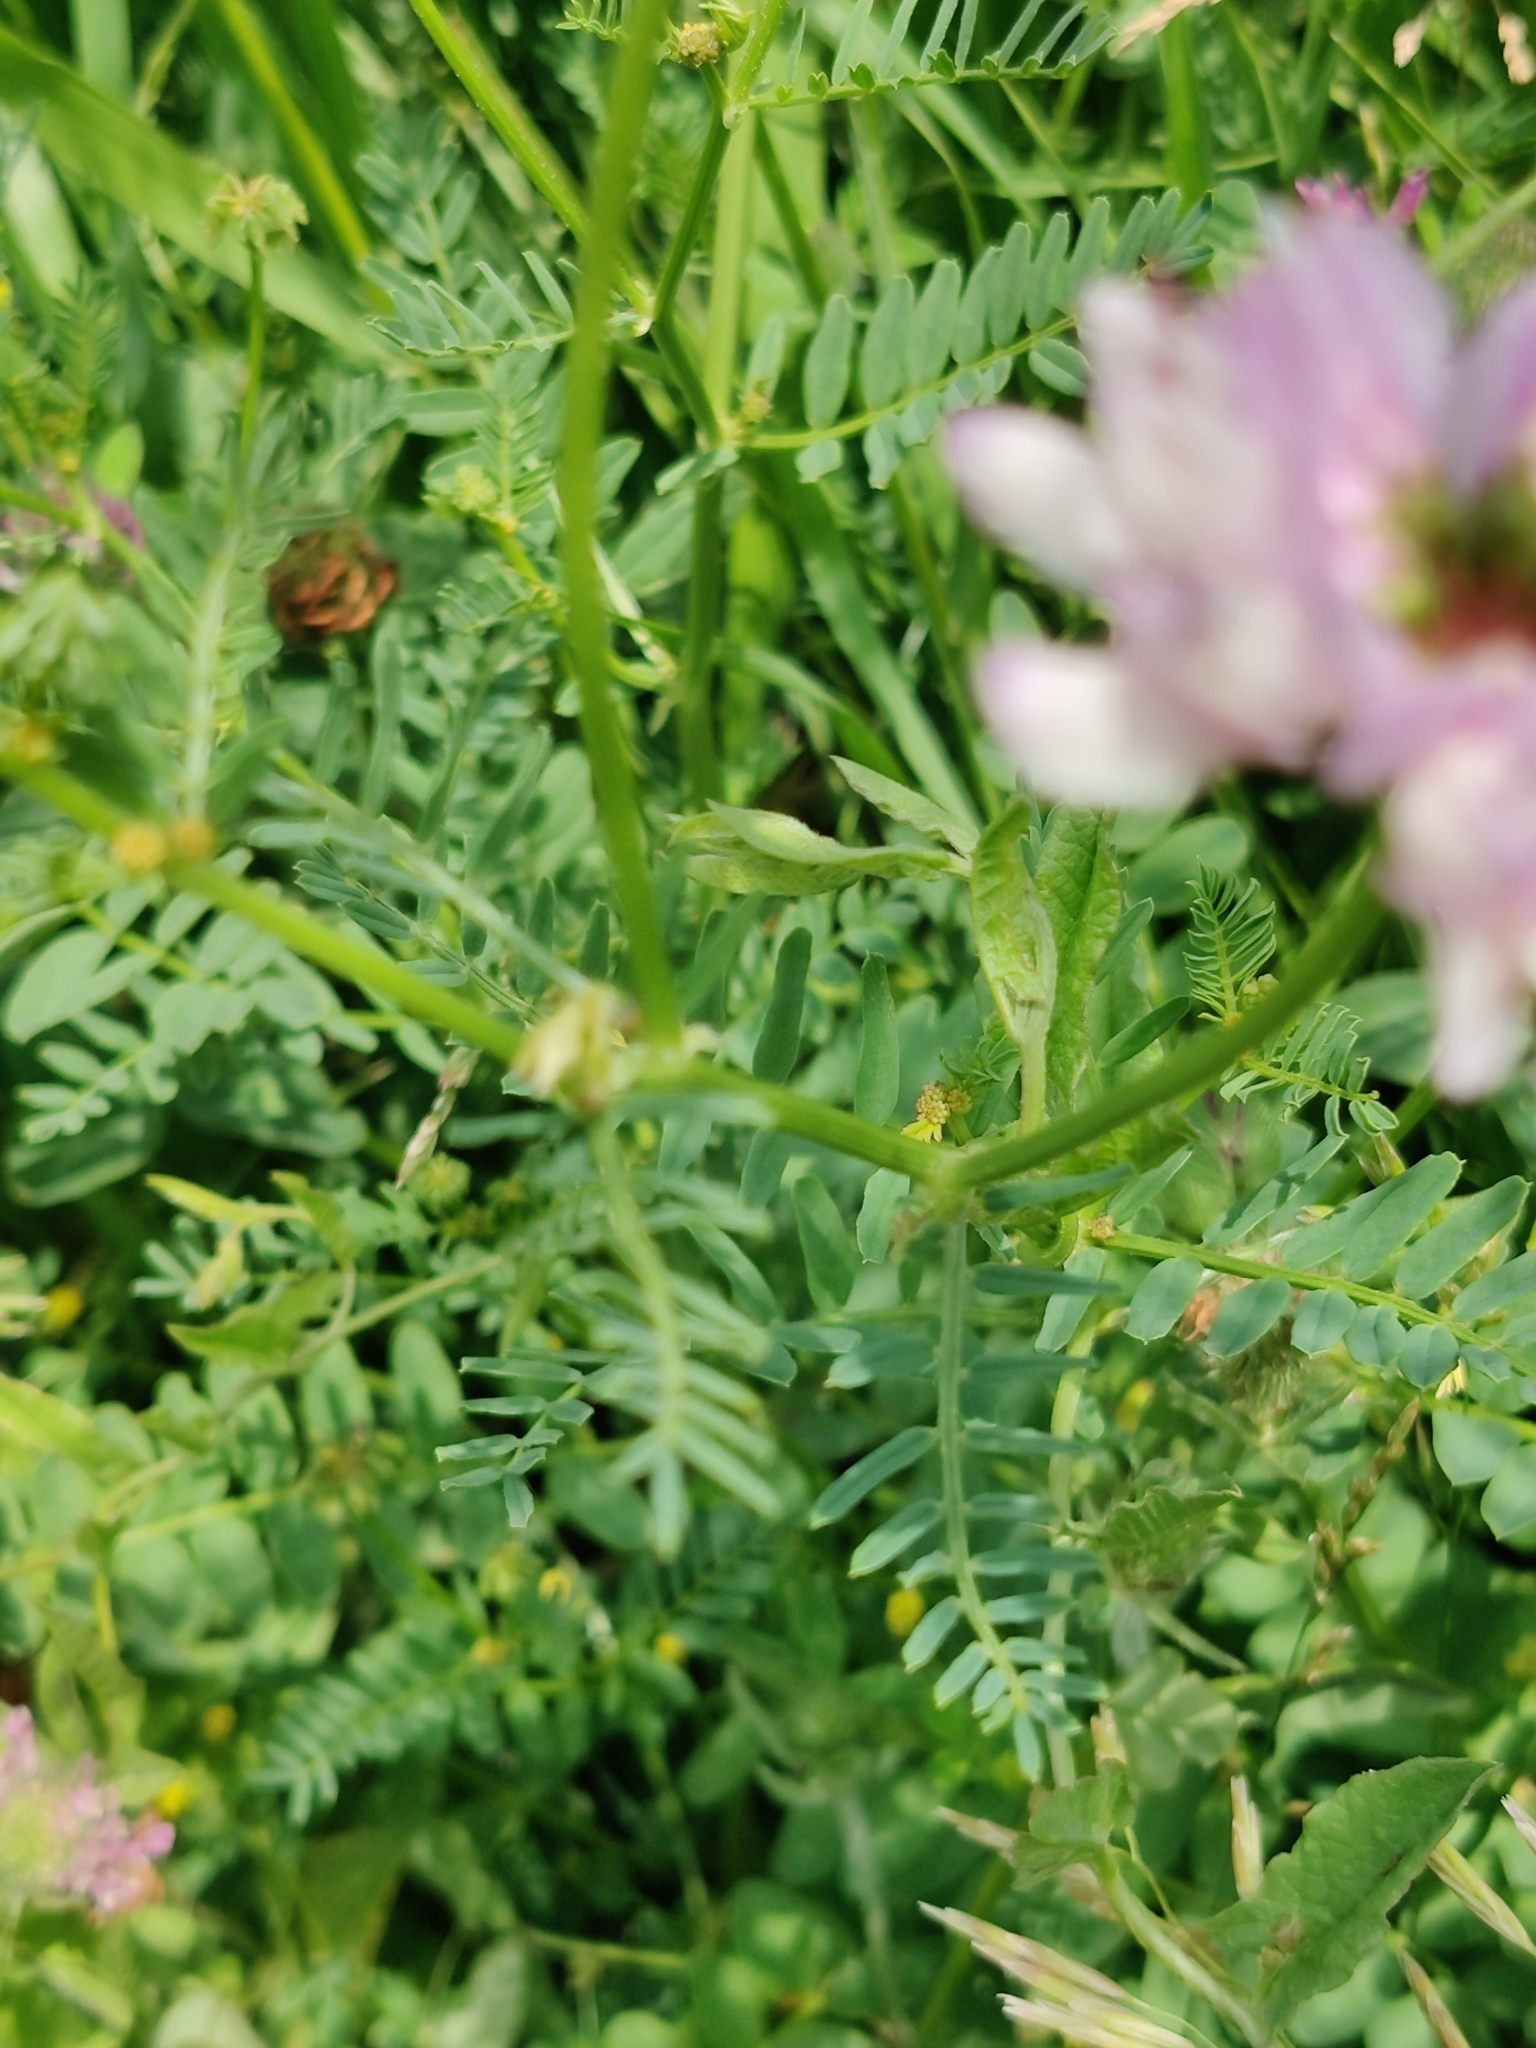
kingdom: Plantae
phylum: Tracheophyta
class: Magnoliopsida
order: Fabales
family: Fabaceae
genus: Coronilla
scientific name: Coronilla varia
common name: Crownvetch
